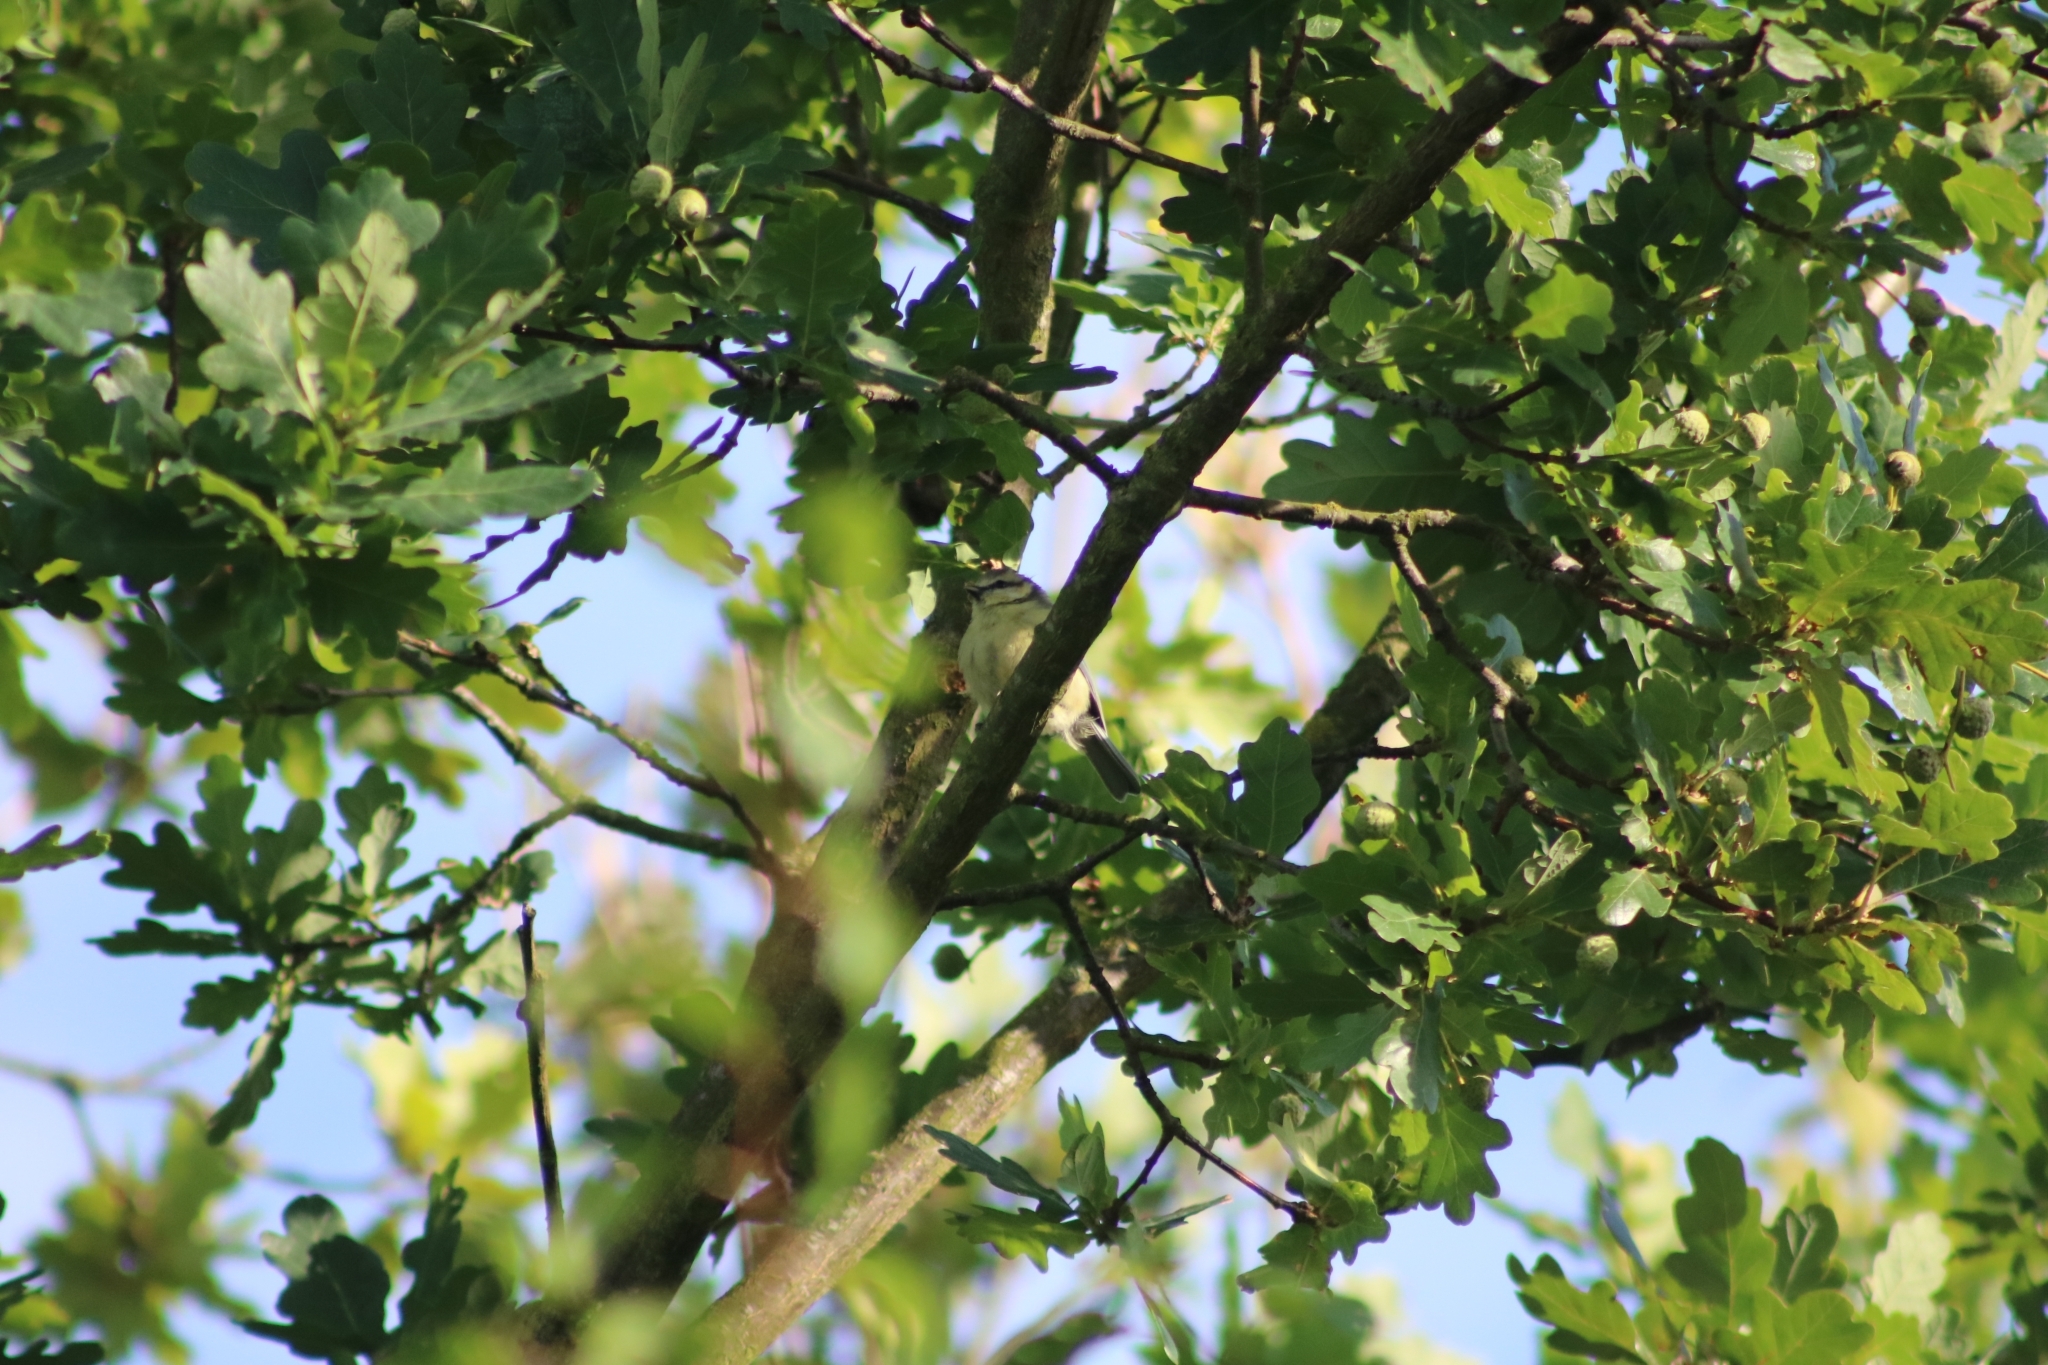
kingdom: Animalia
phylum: Chordata
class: Aves
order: Passeriformes
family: Paridae
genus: Cyanistes
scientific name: Cyanistes caeruleus
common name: Eurasian blue tit
